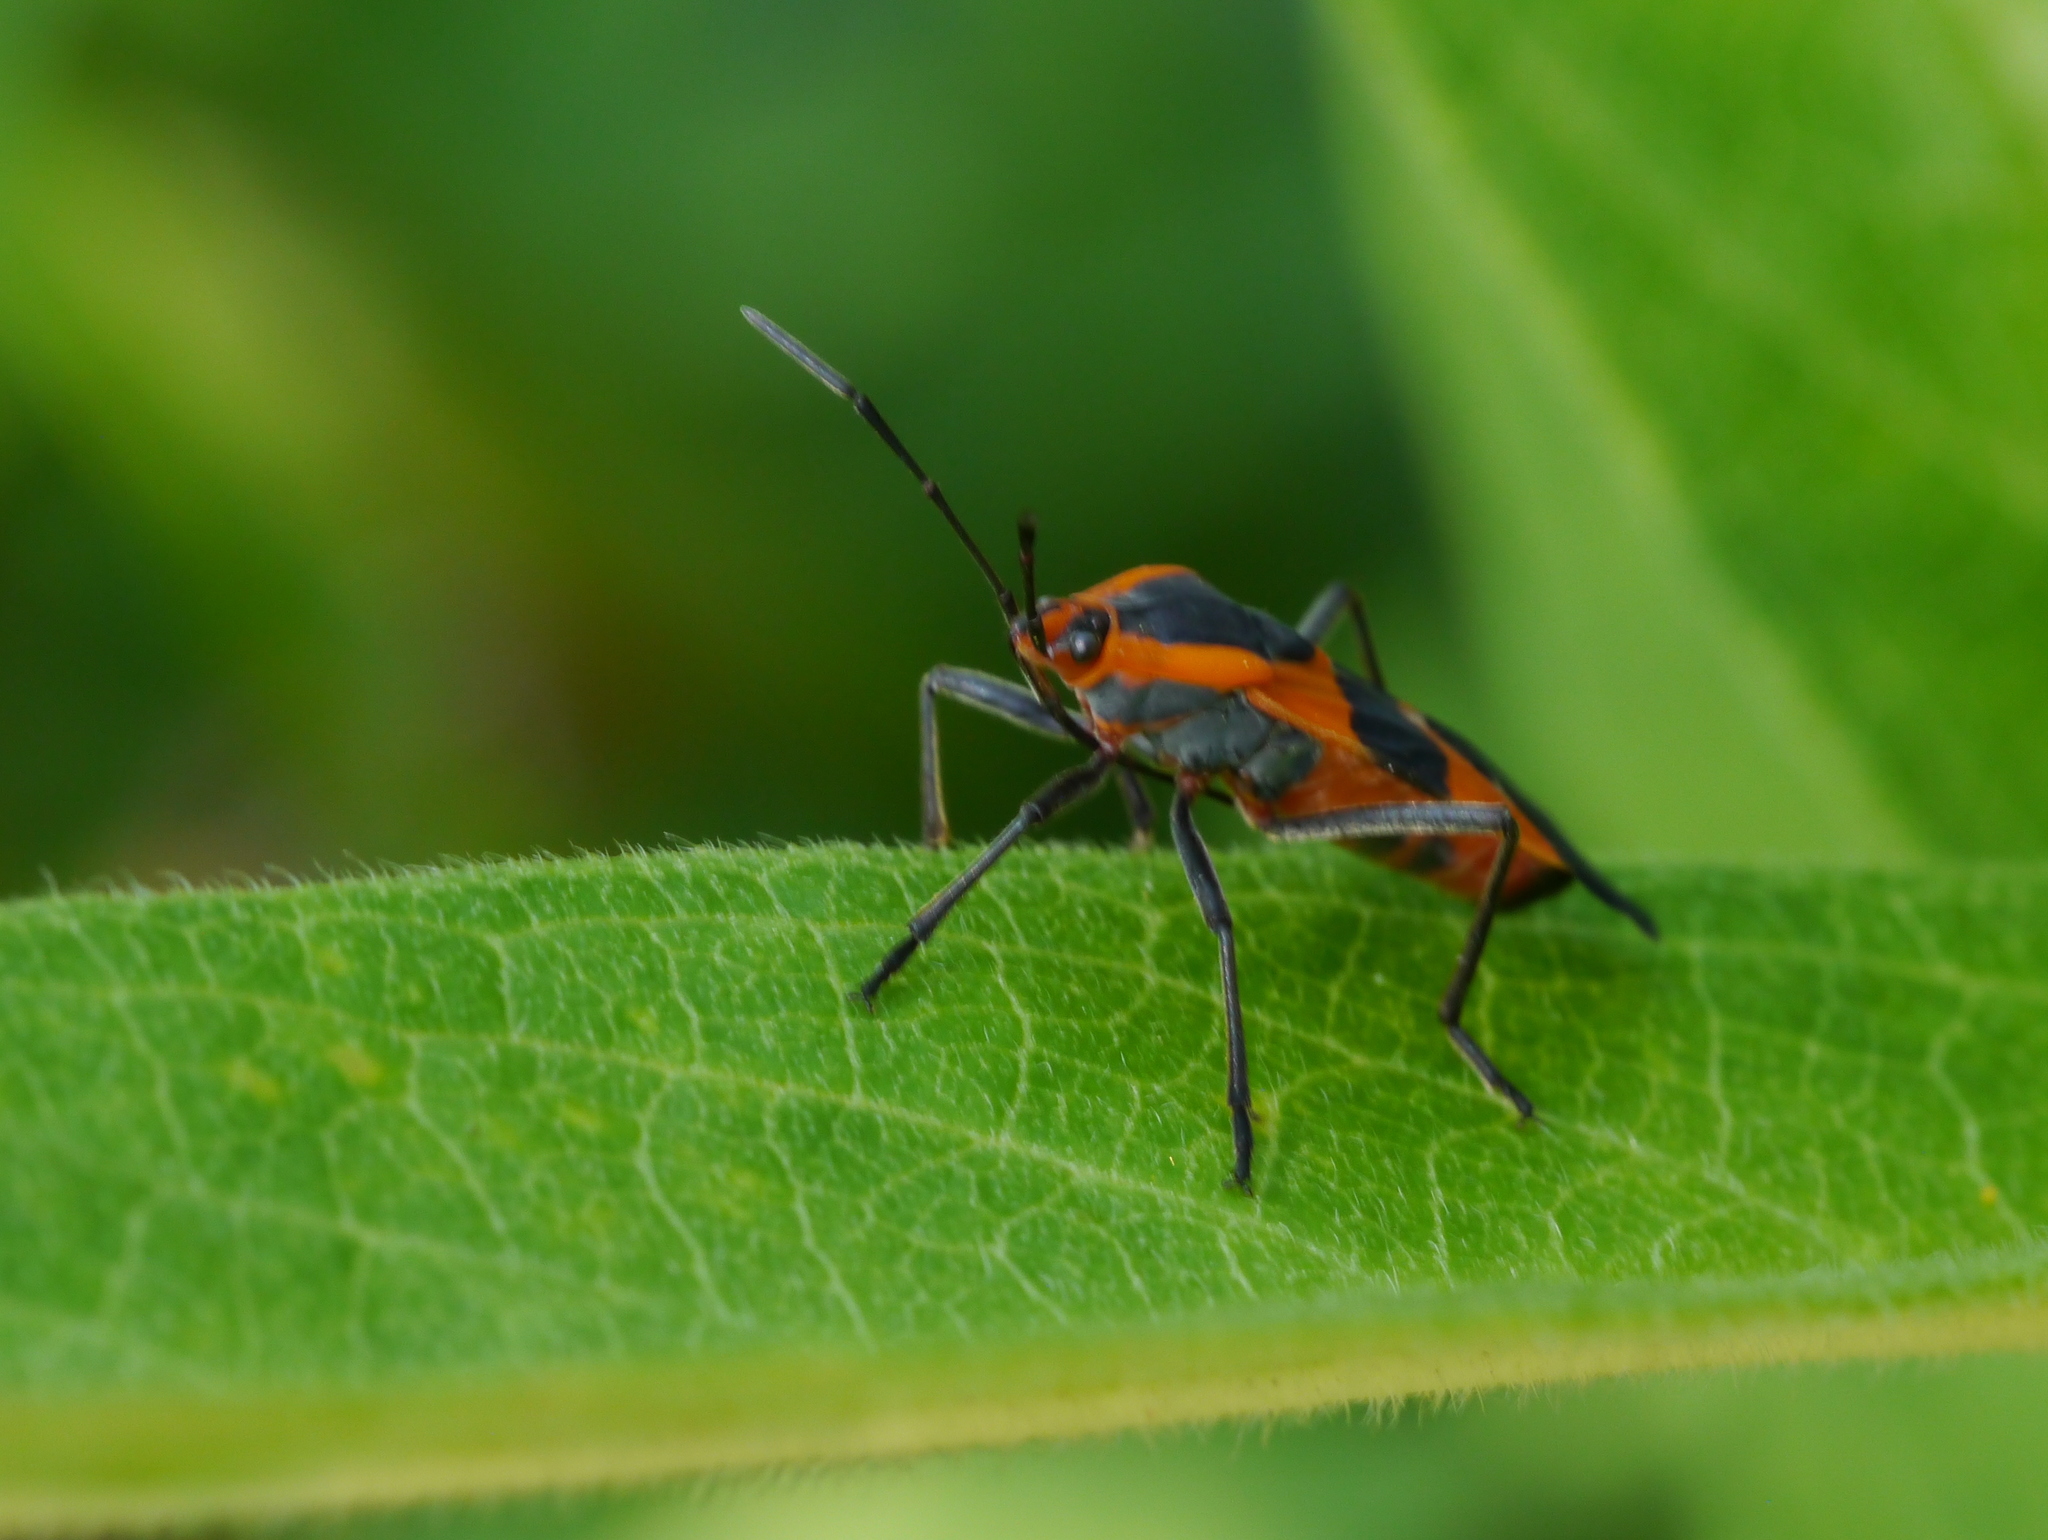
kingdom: Animalia
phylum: Arthropoda
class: Insecta
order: Hemiptera
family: Lygaeidae
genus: Oncopeltus
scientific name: Oncopeltus fasciatus
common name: Large milkweed bug
